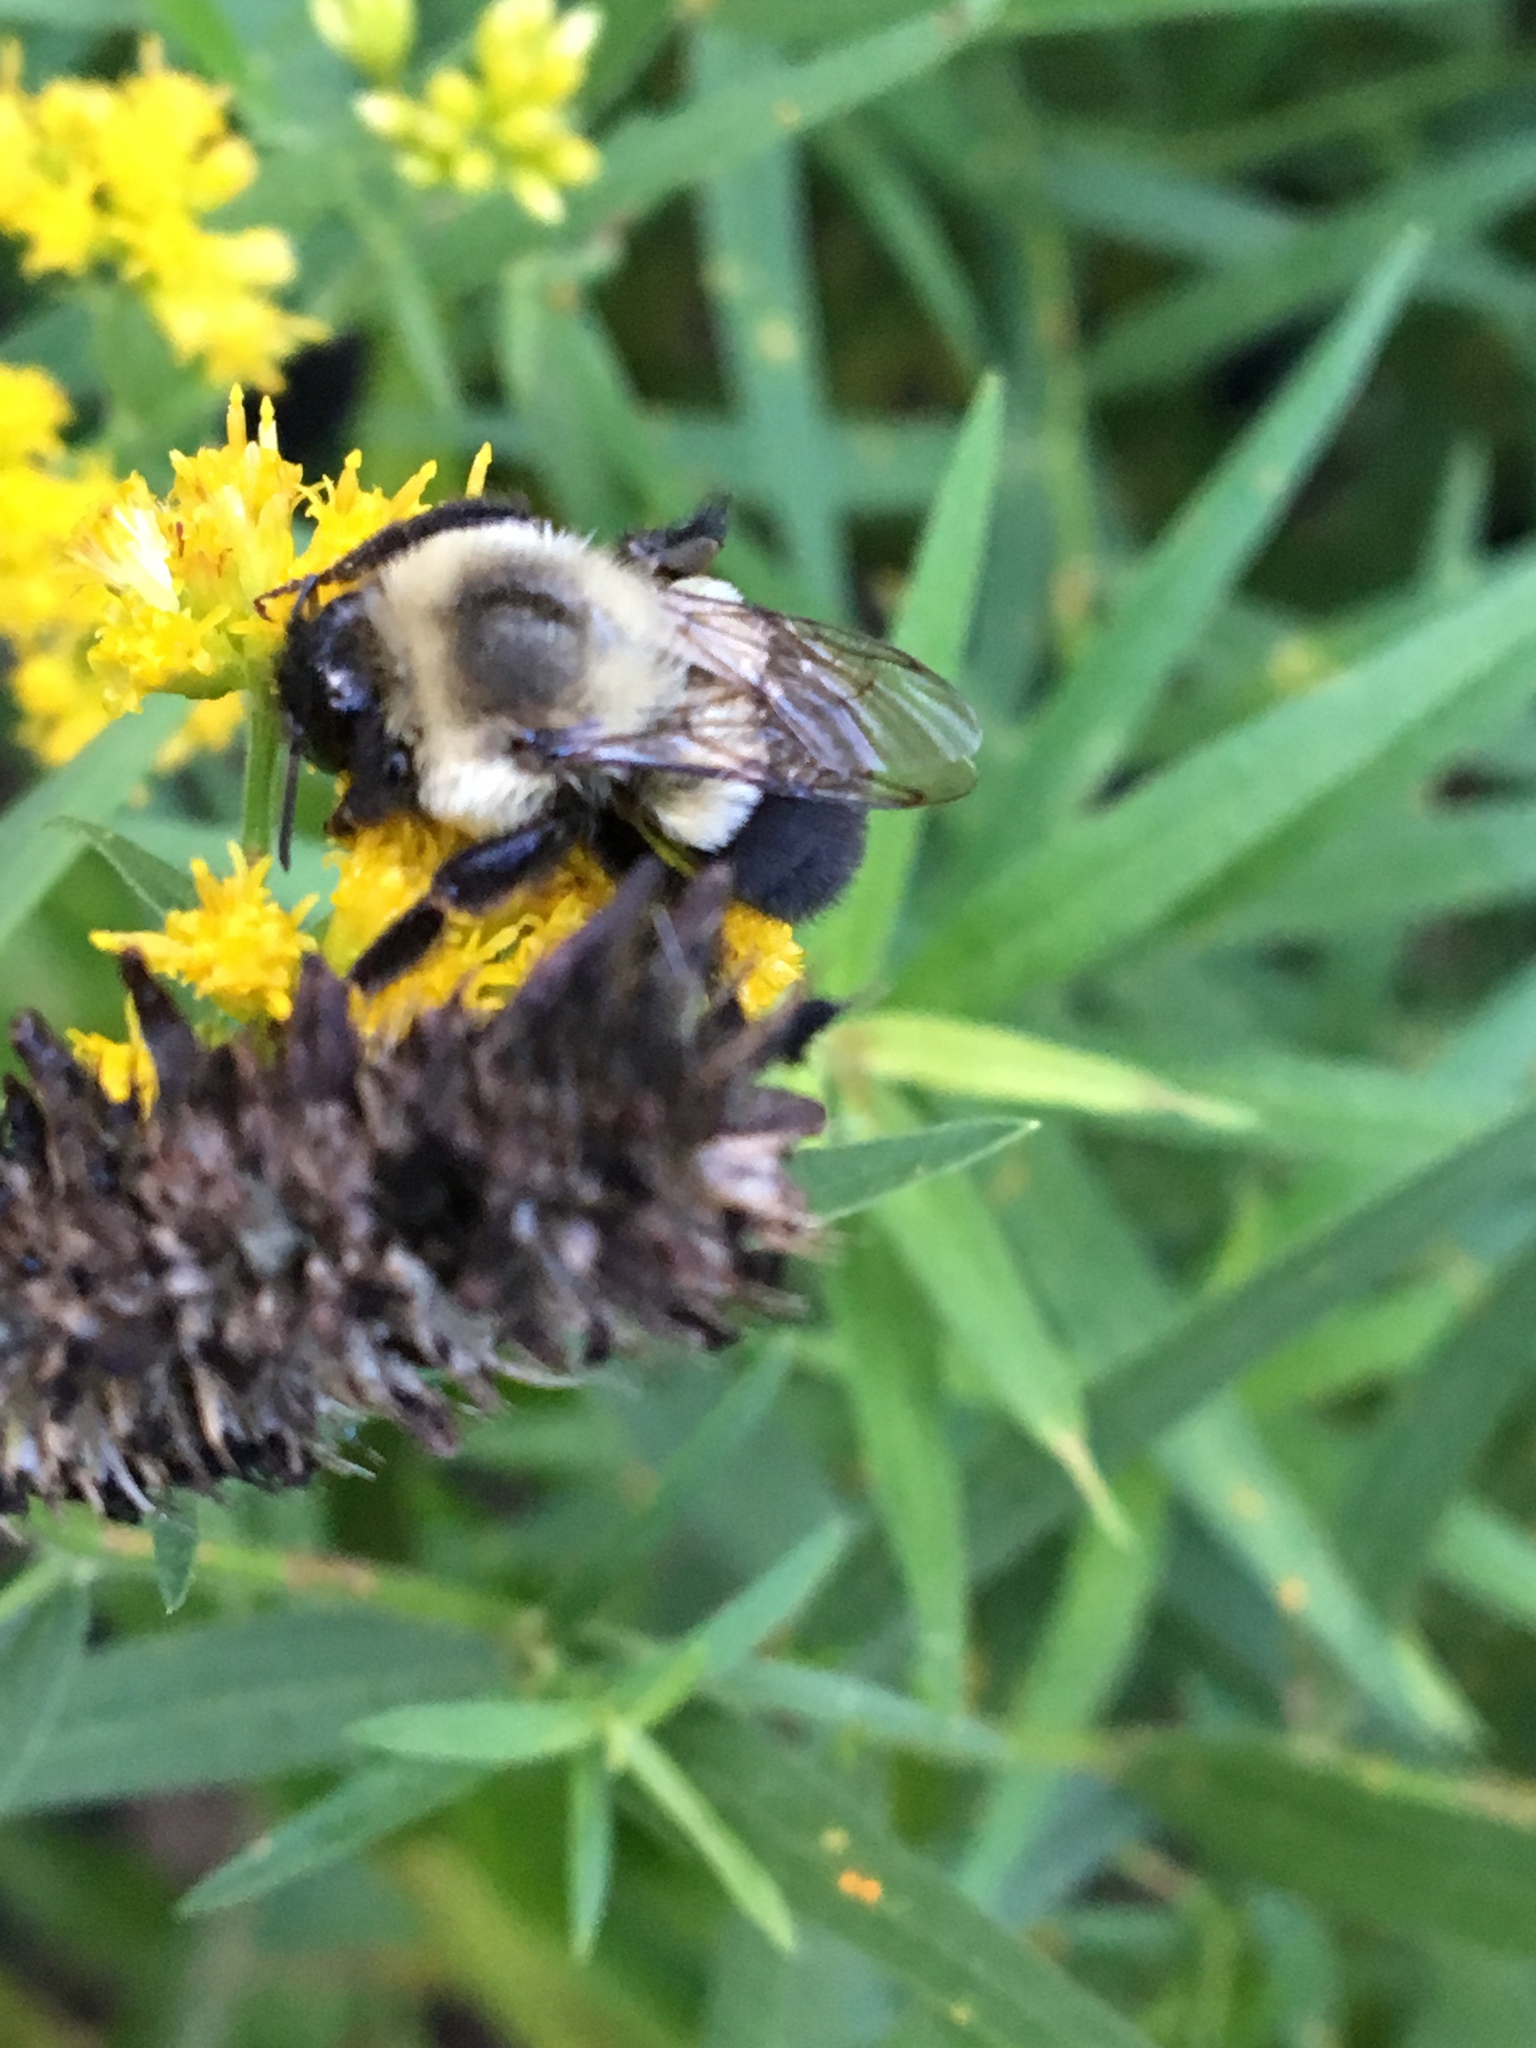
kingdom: Animalia
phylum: Arthropoda
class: Insecta
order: Hymenoptera
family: Apidae
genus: Bombus
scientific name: Bombus impatiens
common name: Common eastern bumble bee
